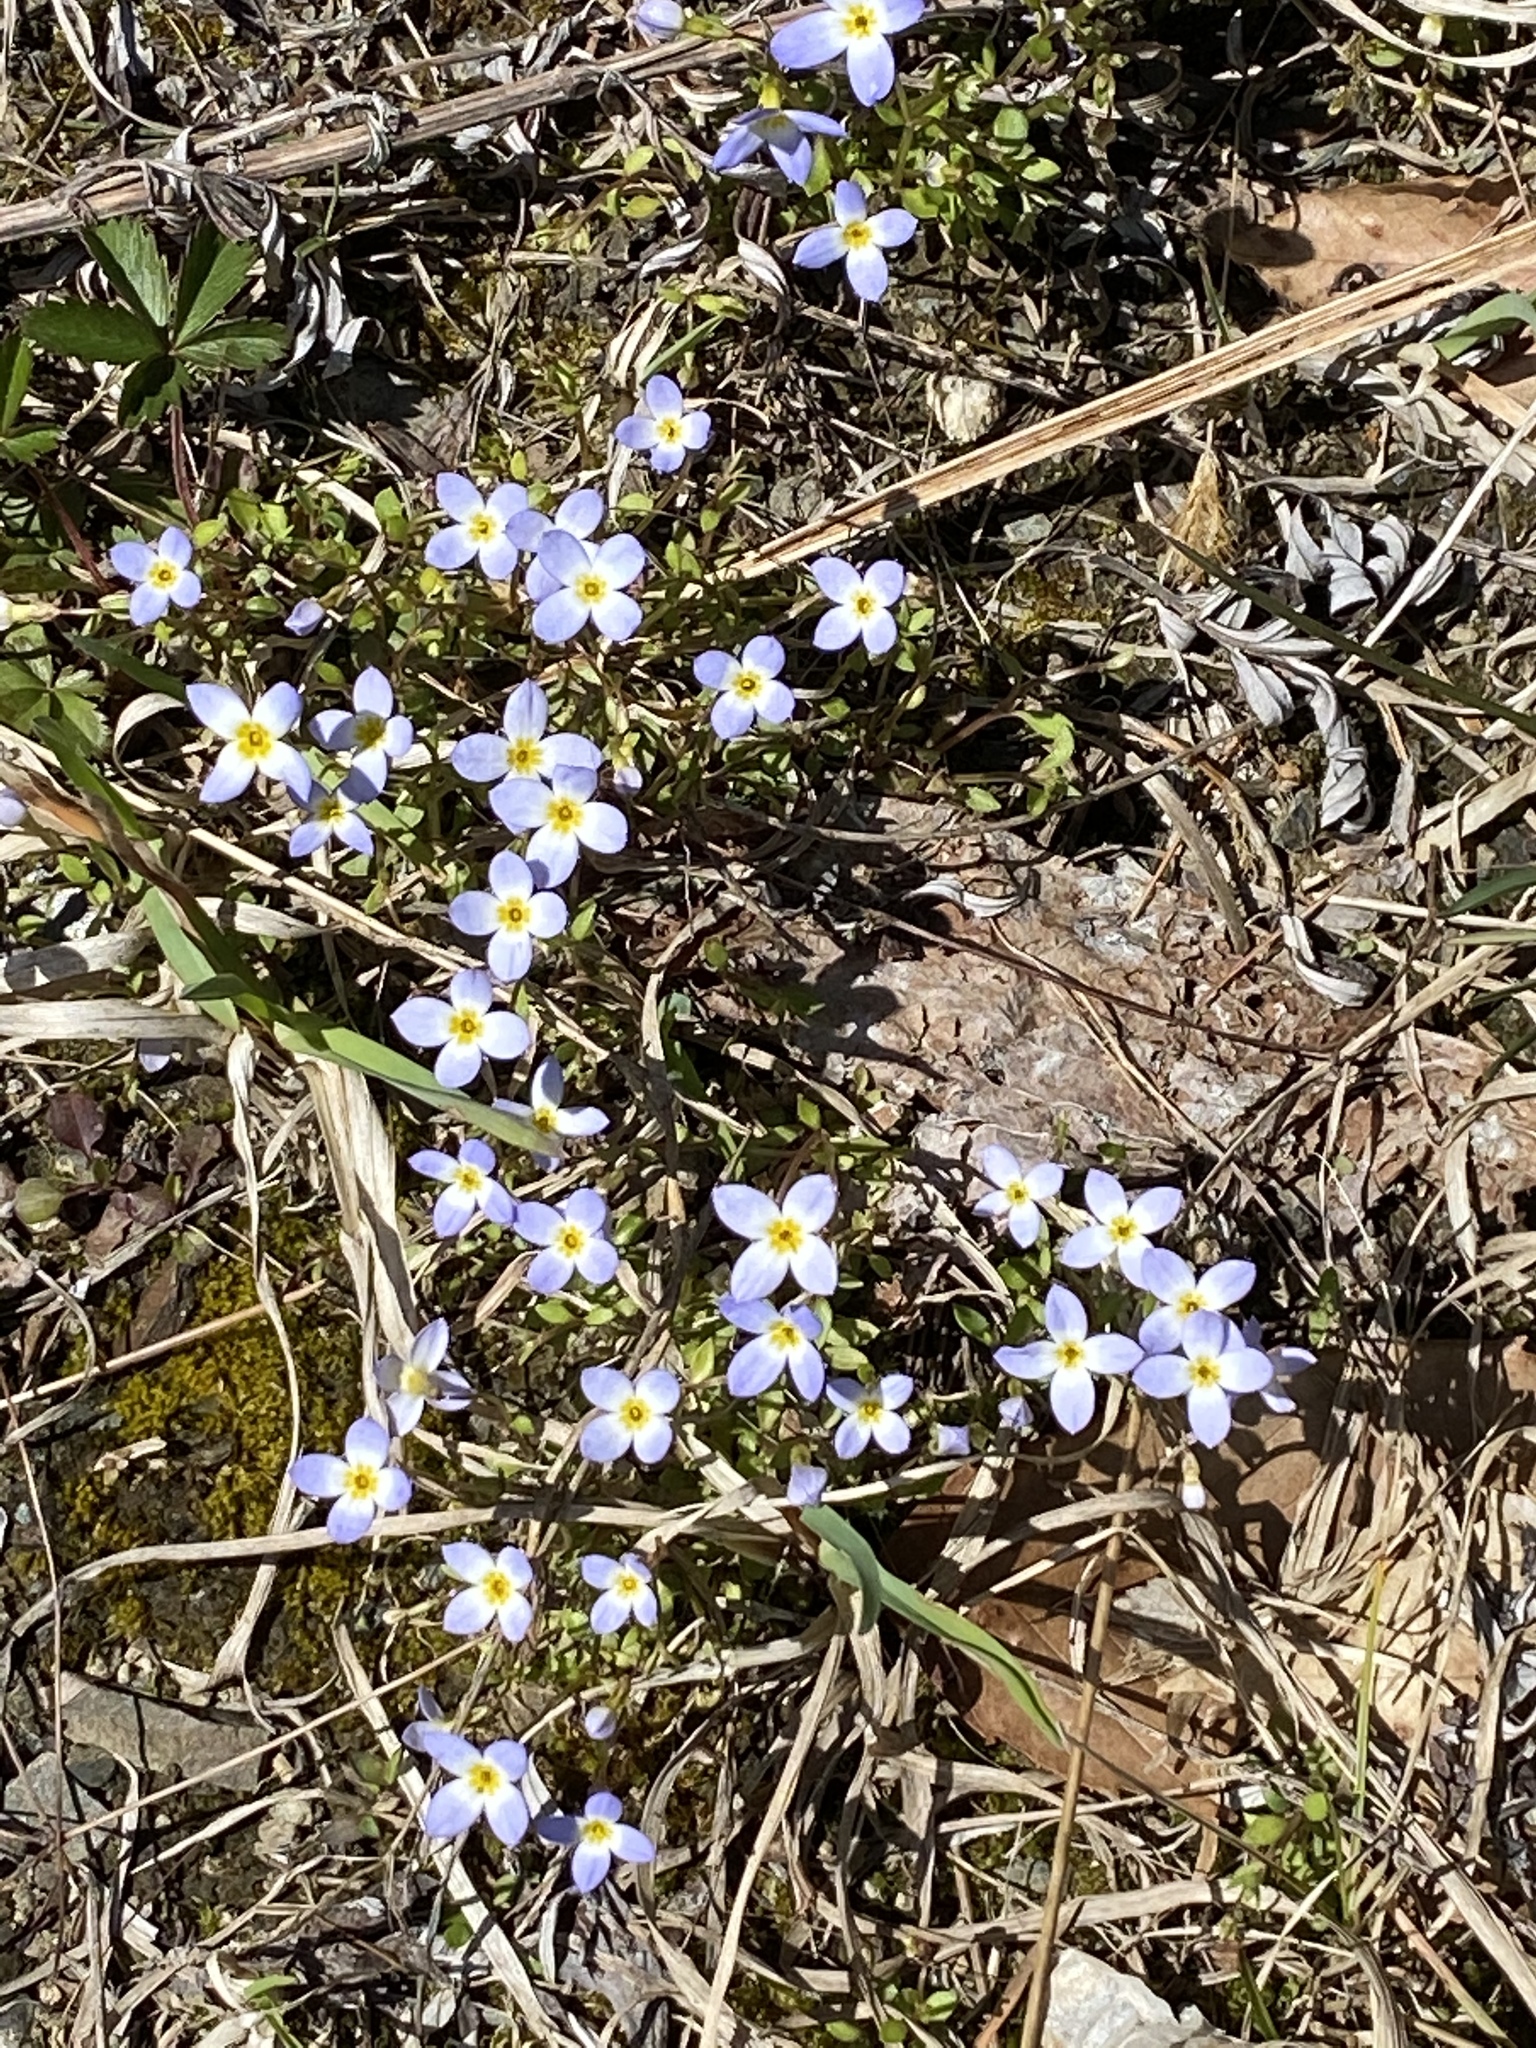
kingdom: Plantae
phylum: Tracheophyta
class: Magnoliopsida
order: Gentianales
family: Rubiaceae
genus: Houstonia
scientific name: Houstonia caerulea
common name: Bluets
